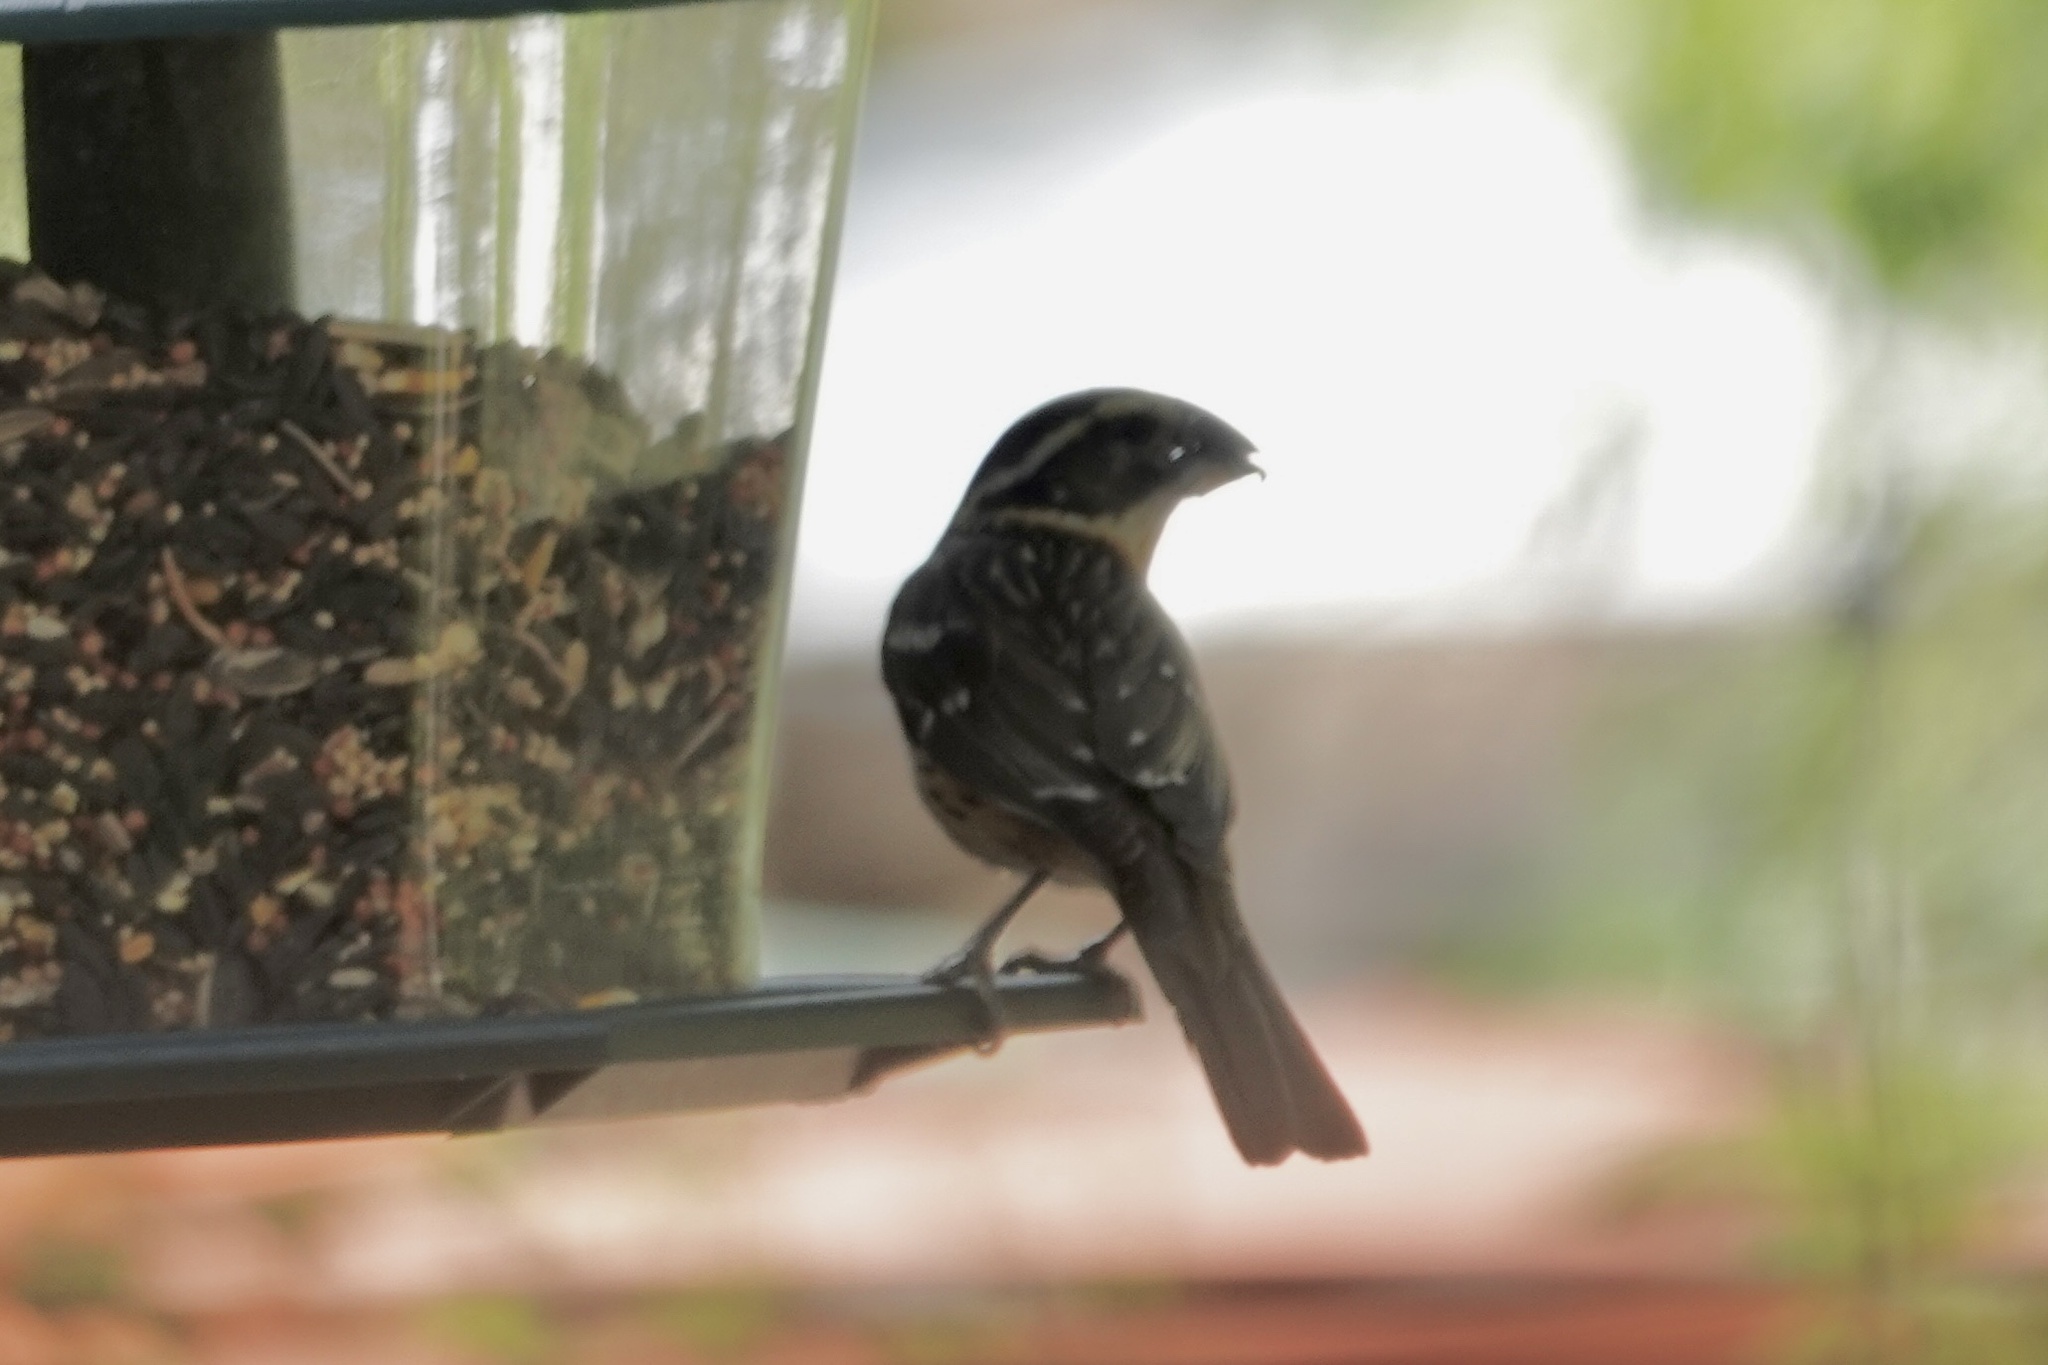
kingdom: Animalia
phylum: Chordata
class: Aves
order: Passeriformes
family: Cardinalidae
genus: Pheucticus
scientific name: Pheucticus melanocephalus
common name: Black-headed grosbeak
